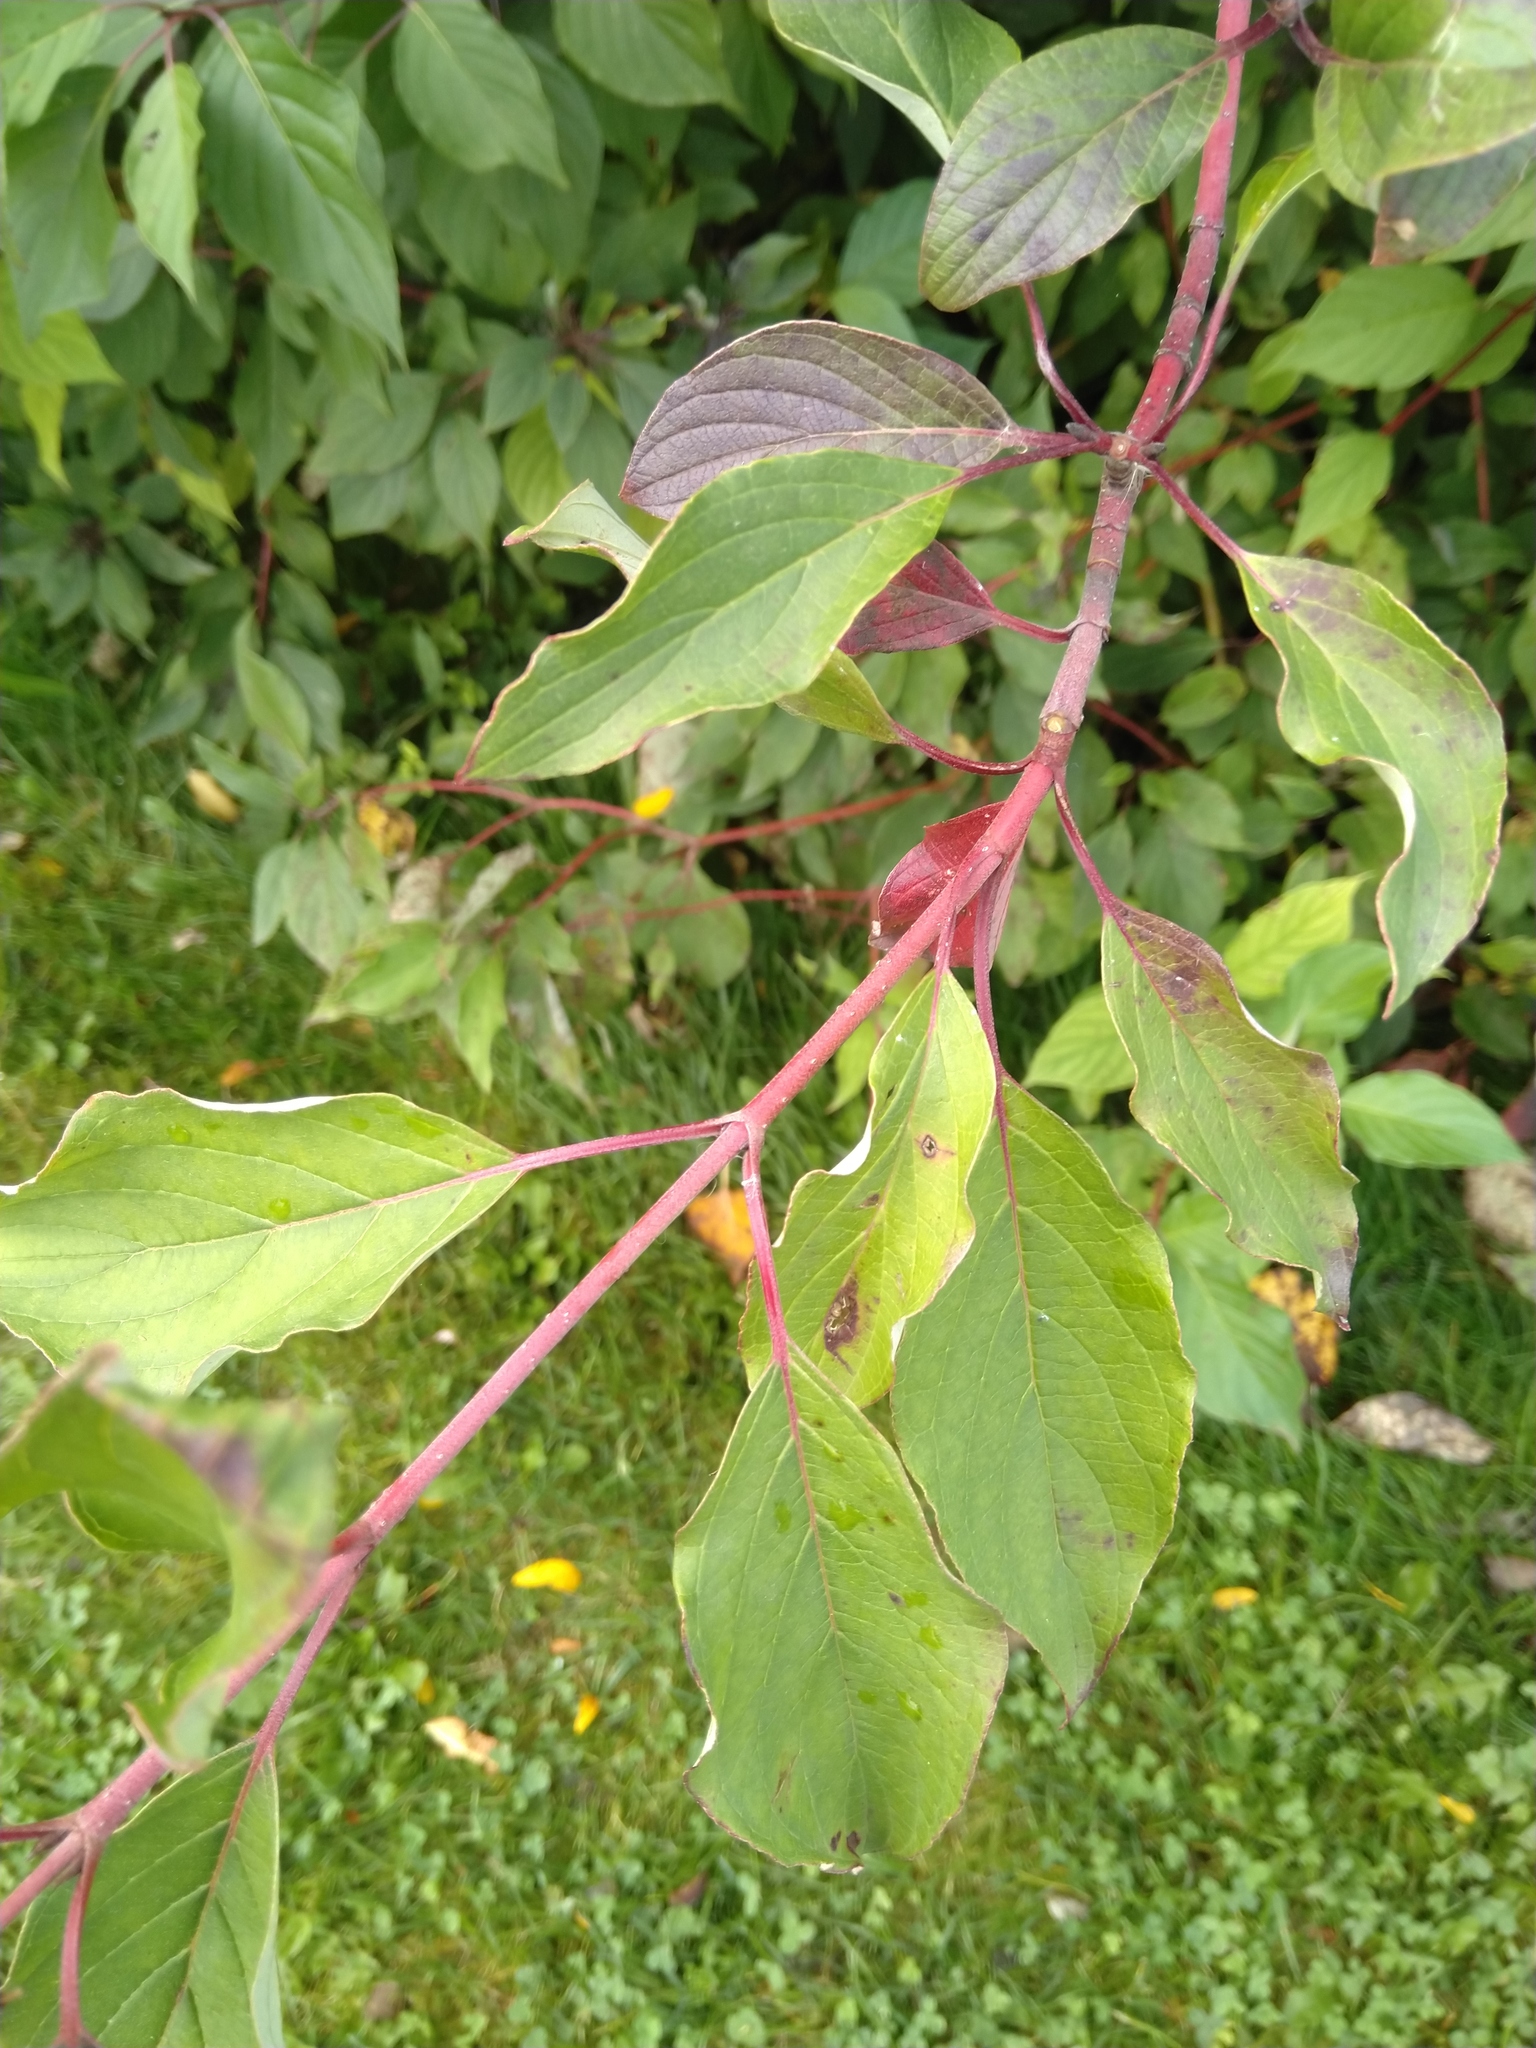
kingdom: Plantae
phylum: Tracheophyta
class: Magnoliopsida
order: Cornales
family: Cornaceae
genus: Cornus
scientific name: Cornus sericea
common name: Red-osier dogwood
